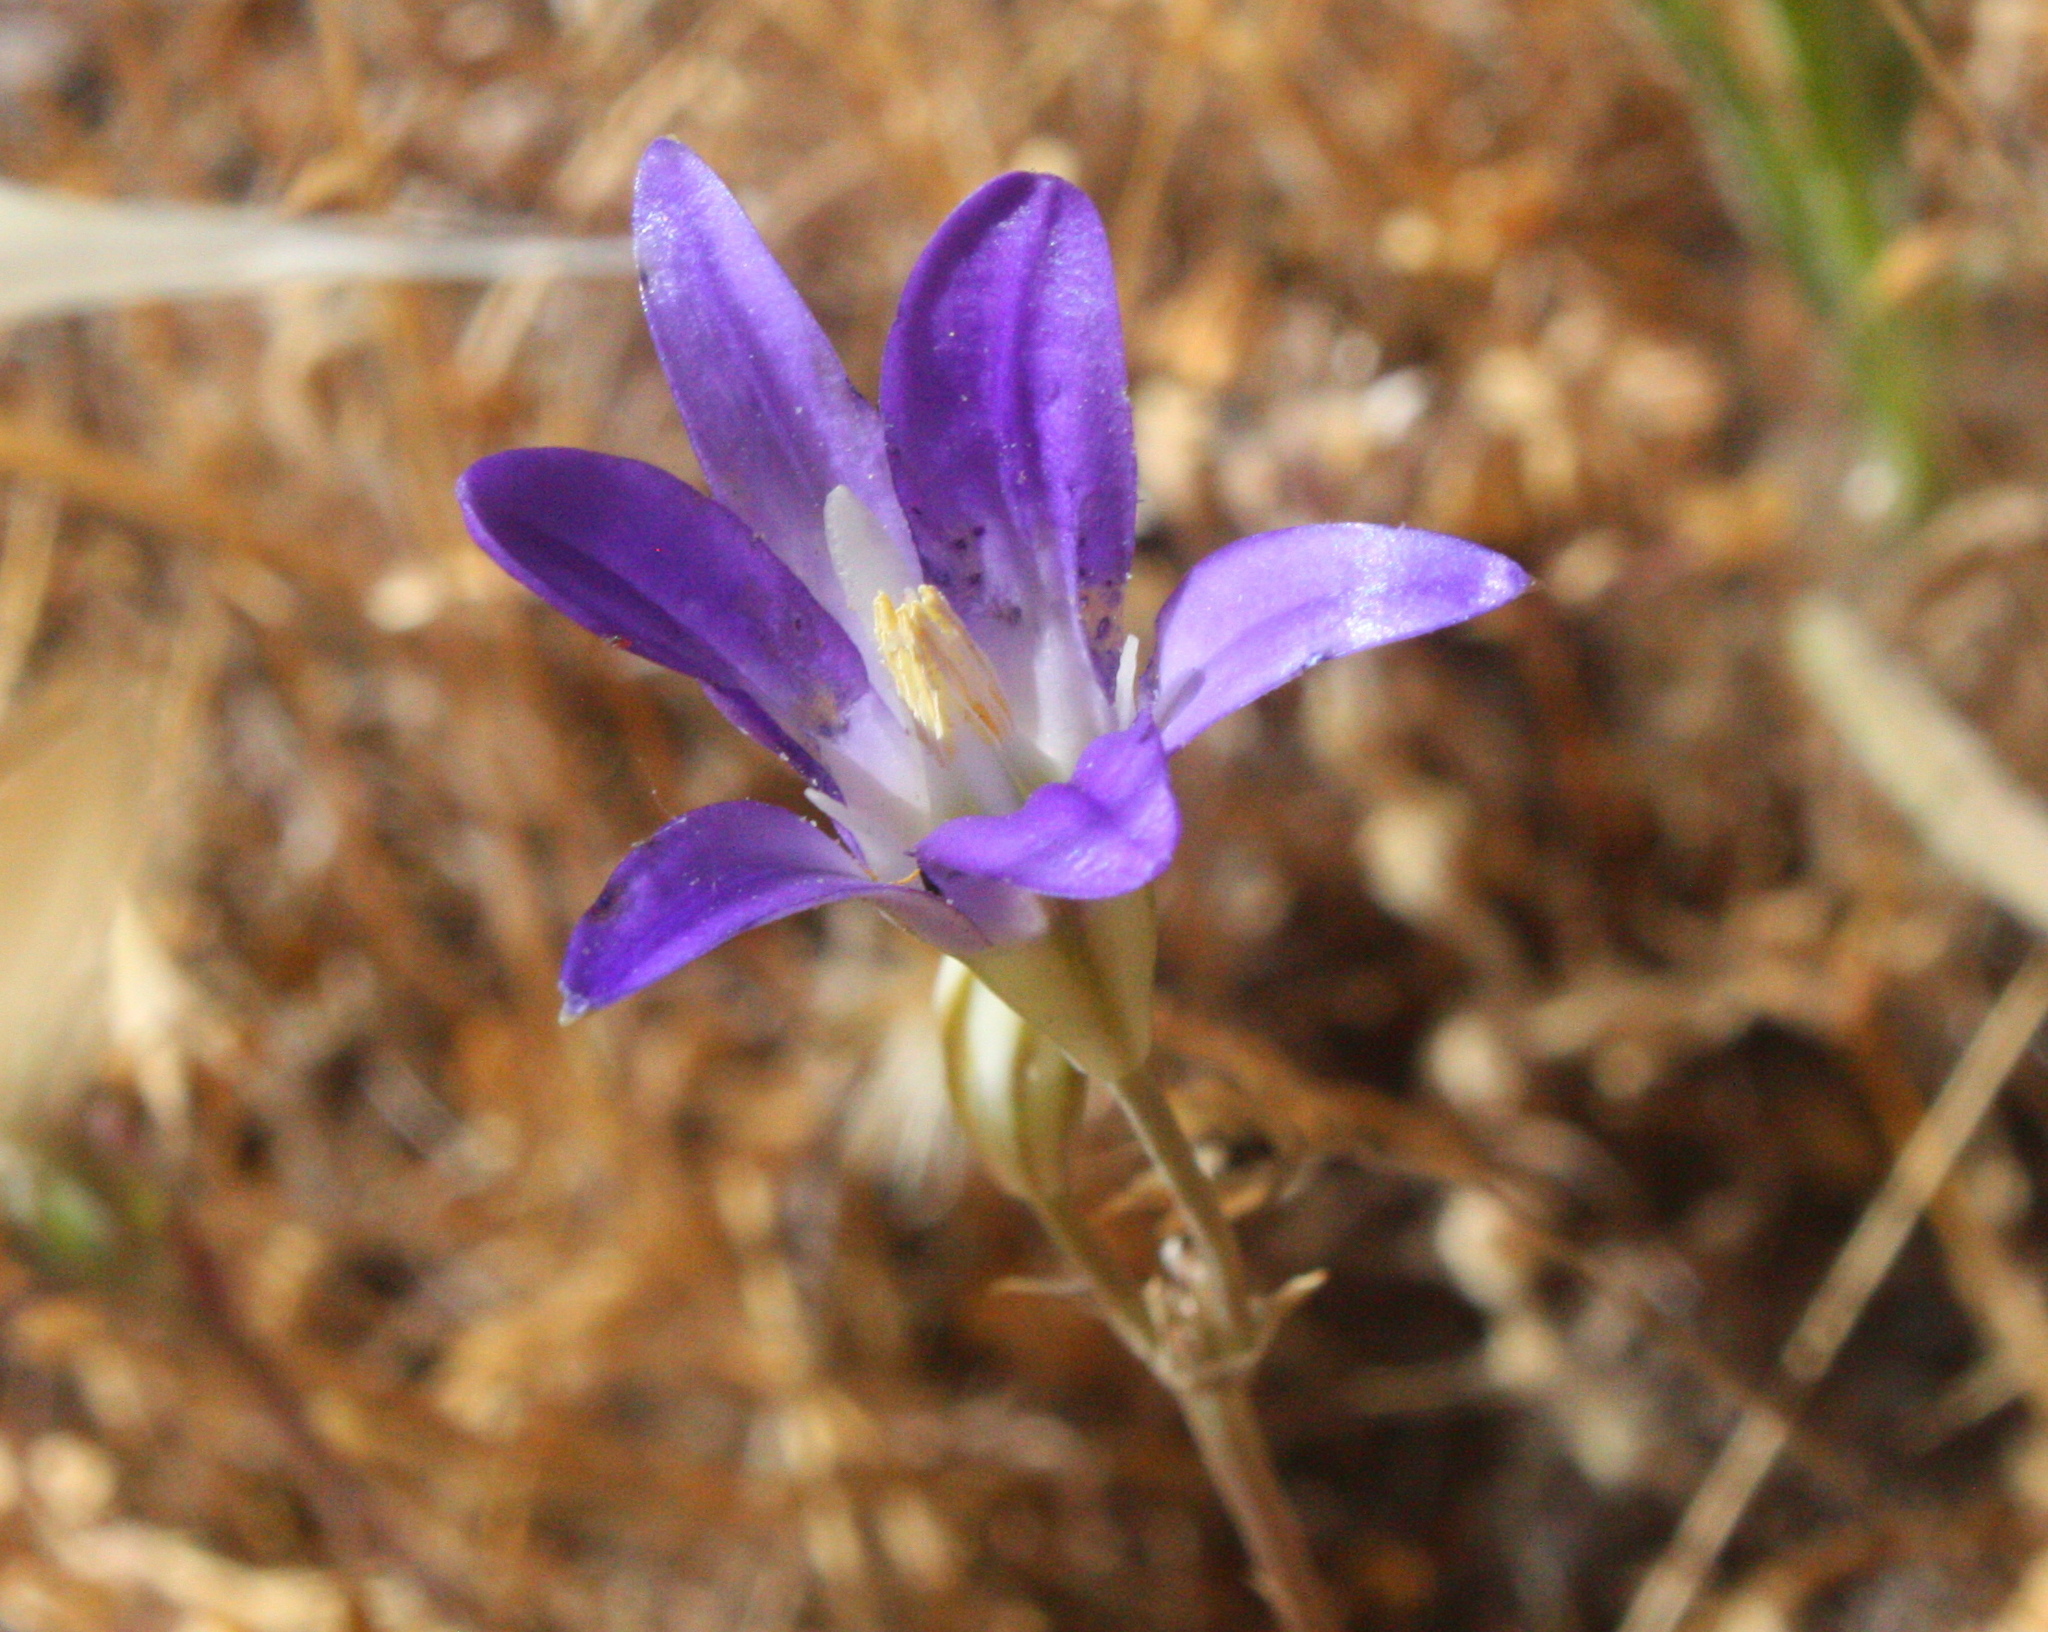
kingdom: Plantae
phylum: Tracheophyta
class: Liliopsida
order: Asparagales
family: Asparagaceae
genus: Brodiaea
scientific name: Brodiaea elegans
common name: Elegant cluster-lily
